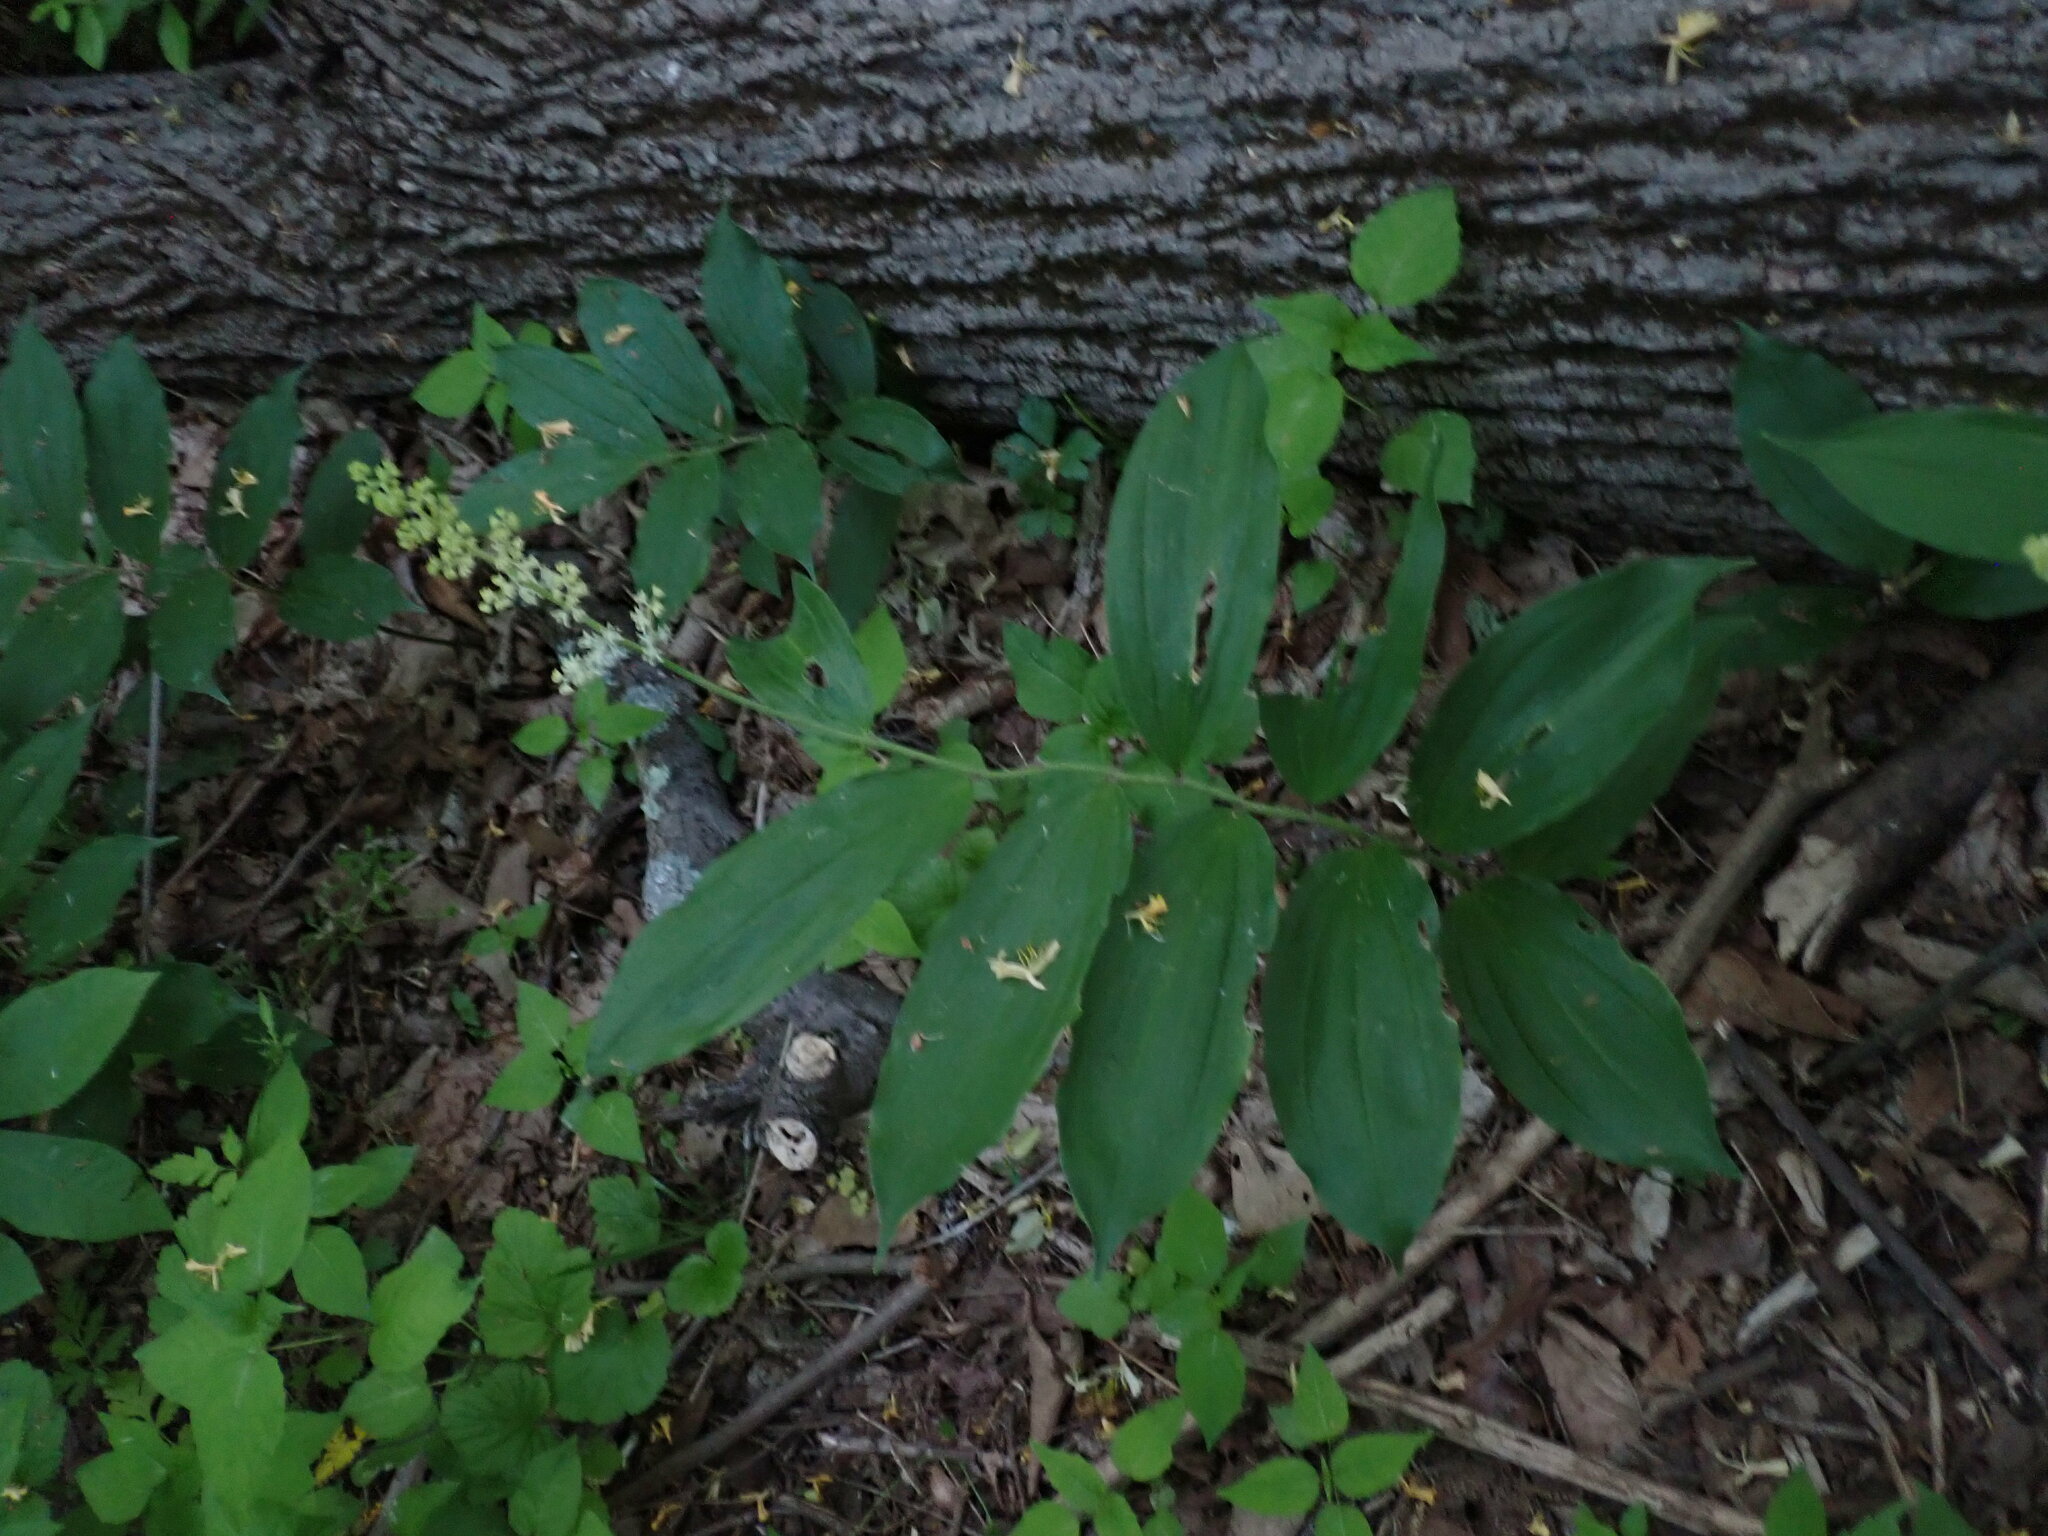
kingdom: Plantae
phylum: Tracheophyta
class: Liliopsida
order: Asparagales
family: Asparagaceae
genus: Maianthemum
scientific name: Maianthemum racemosum
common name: False spikenard
